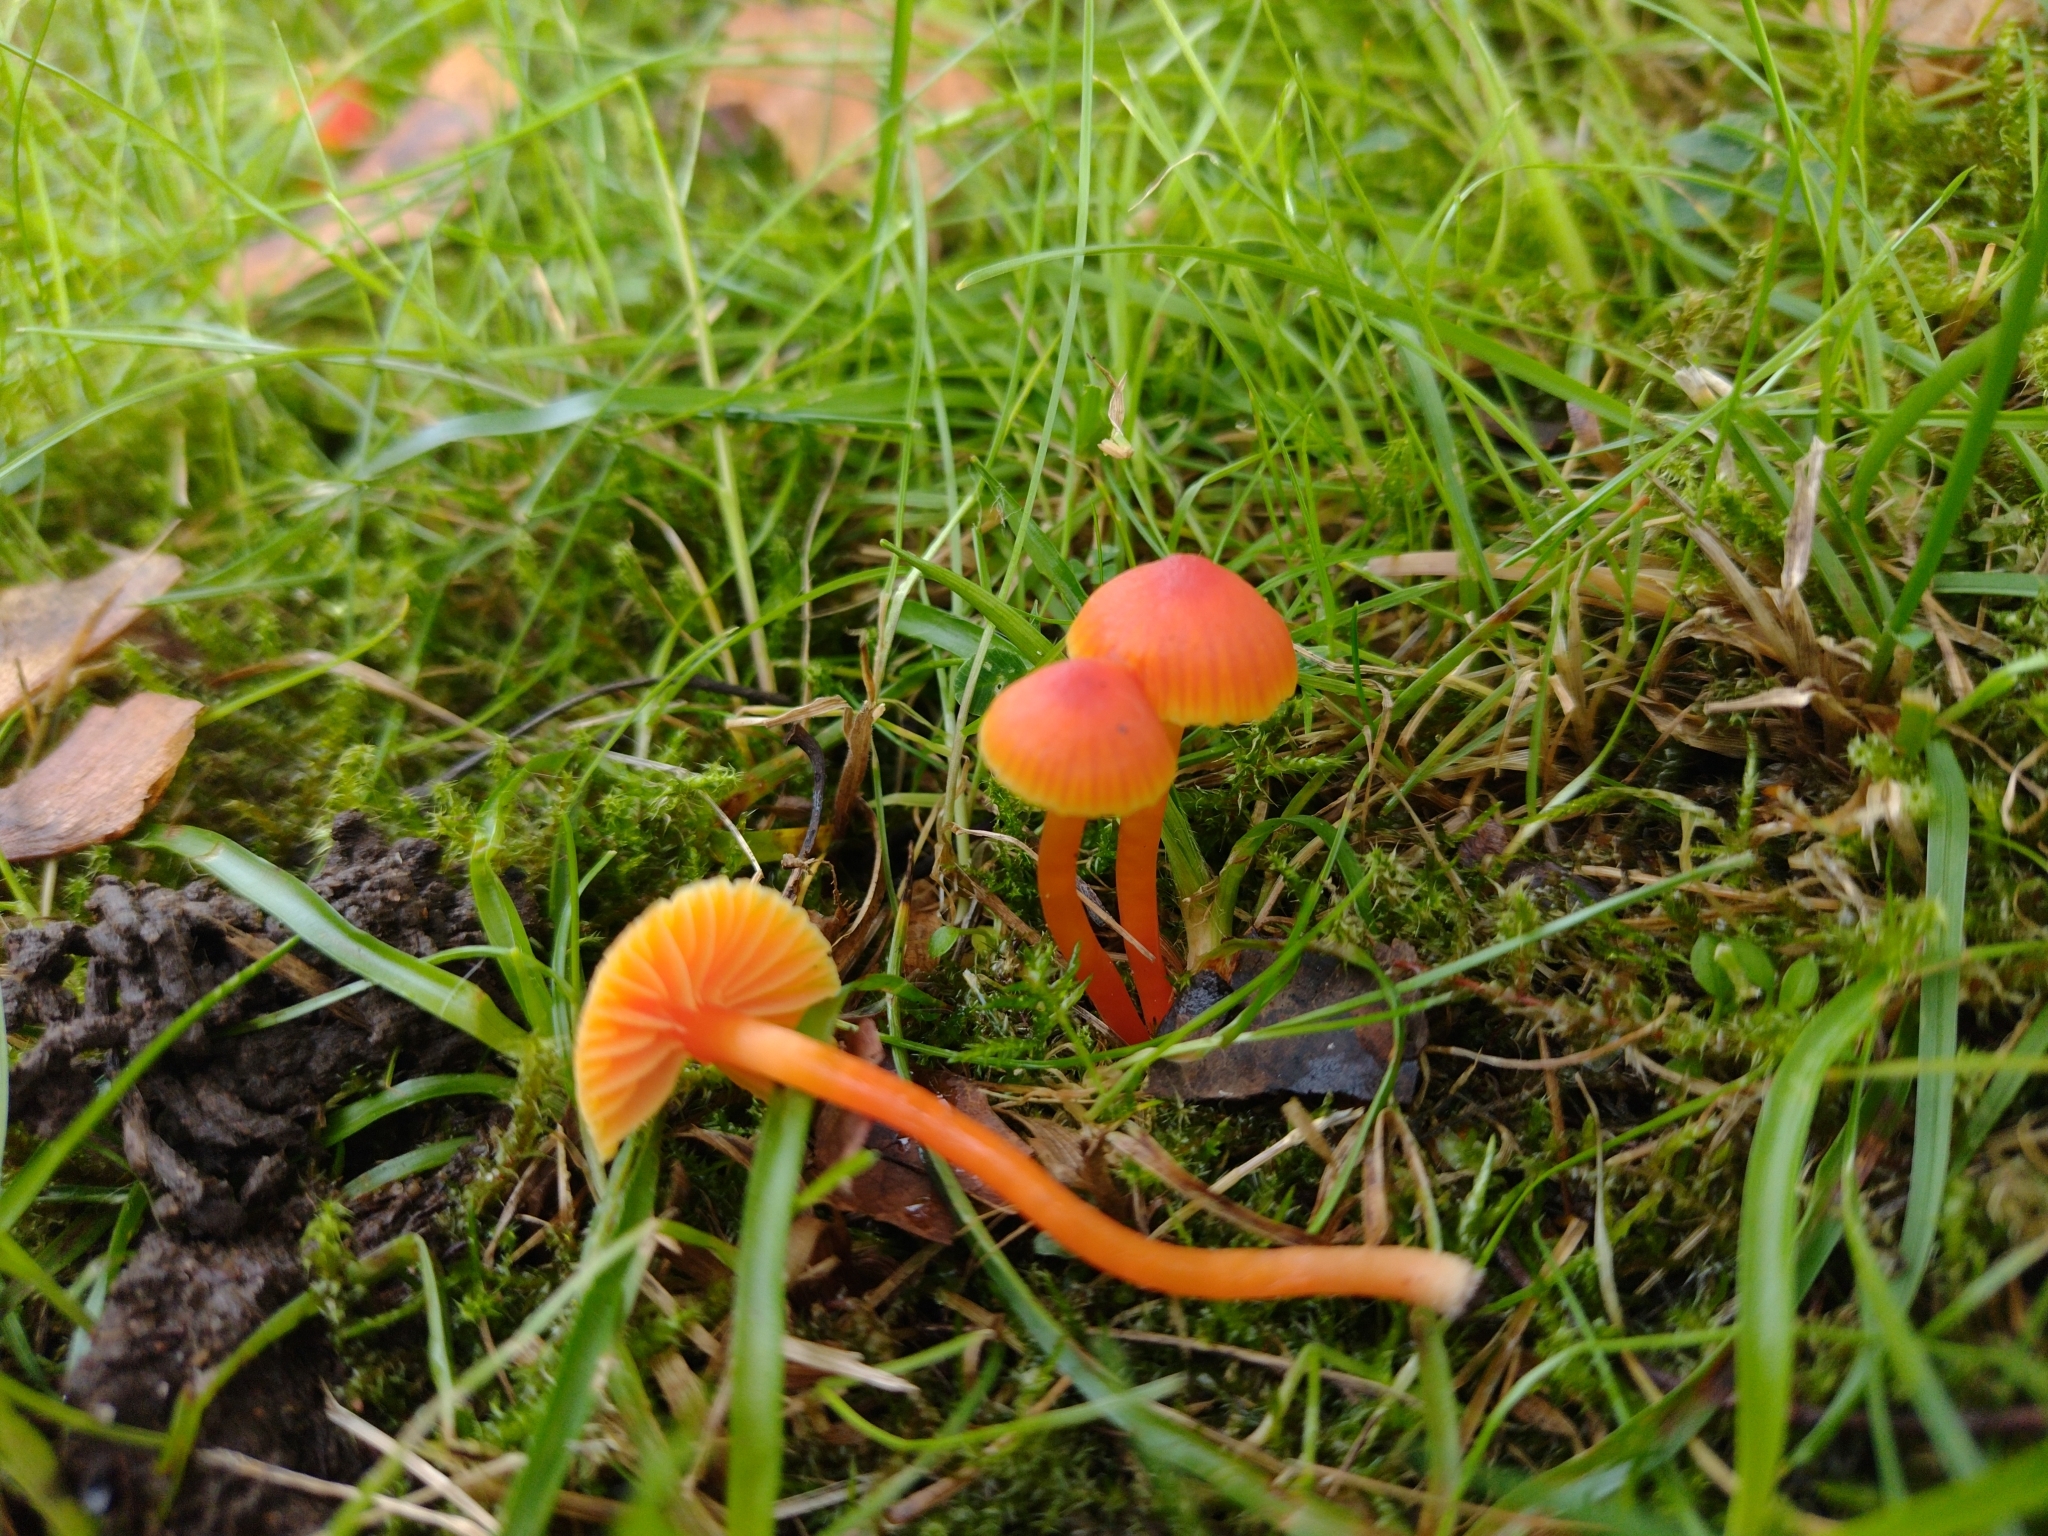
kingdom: Fungi
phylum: Basidiomycota
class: Agaricomycetes
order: Agaricales
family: Hygrophoraceae
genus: Hygrocybe
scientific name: Hygrocybe mucronella
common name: Bitter waxcap
